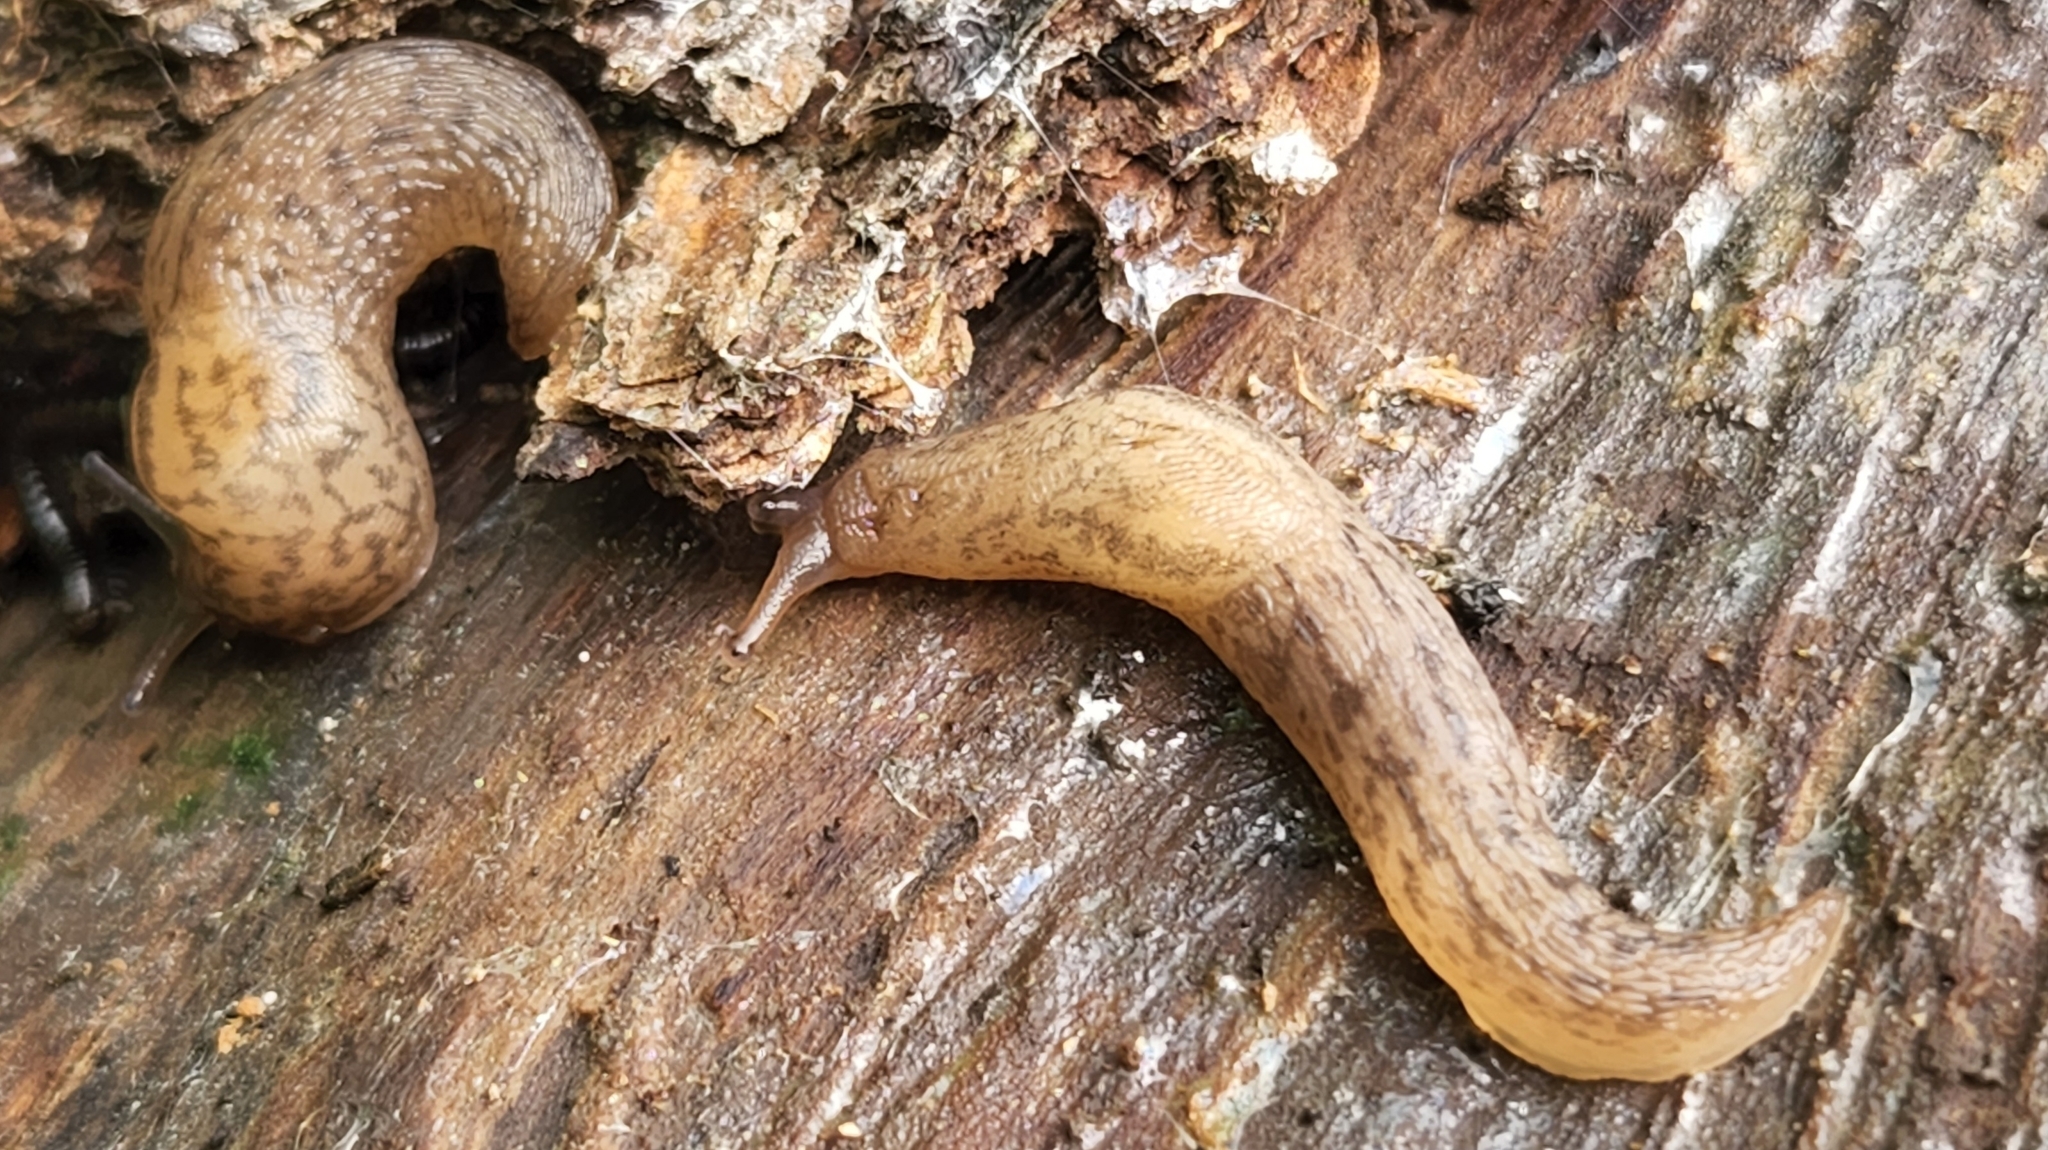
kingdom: Animalia
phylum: Mollusca
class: Gastropoda
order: Stylommatophora
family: Limacidae
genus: Ambigolimax
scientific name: Ambigolimax
